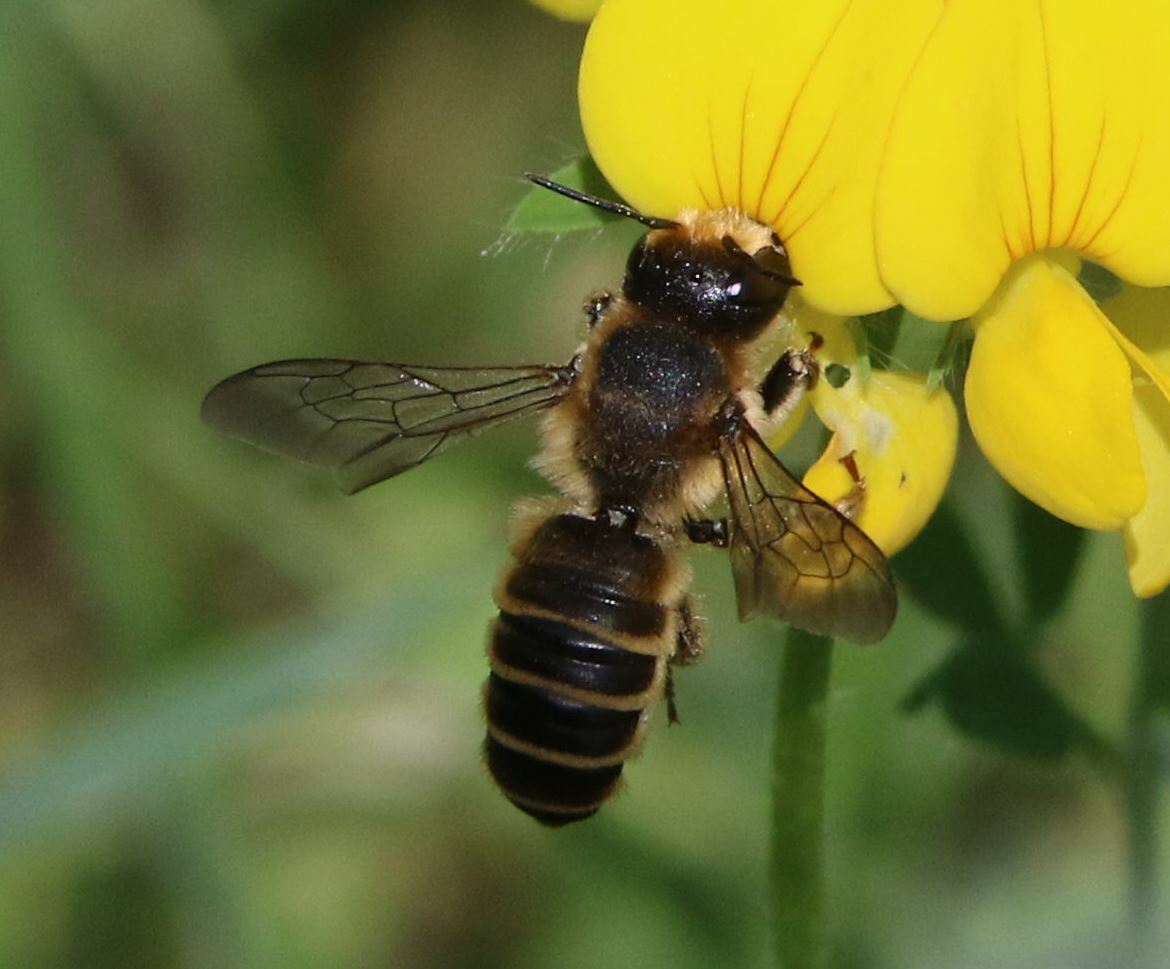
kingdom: Animalia
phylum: Arthropoda
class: Insecta
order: Hymenoptera
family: Megachilidae
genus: Megachile
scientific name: Megachile ericetorum
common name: Leafcutter bee
